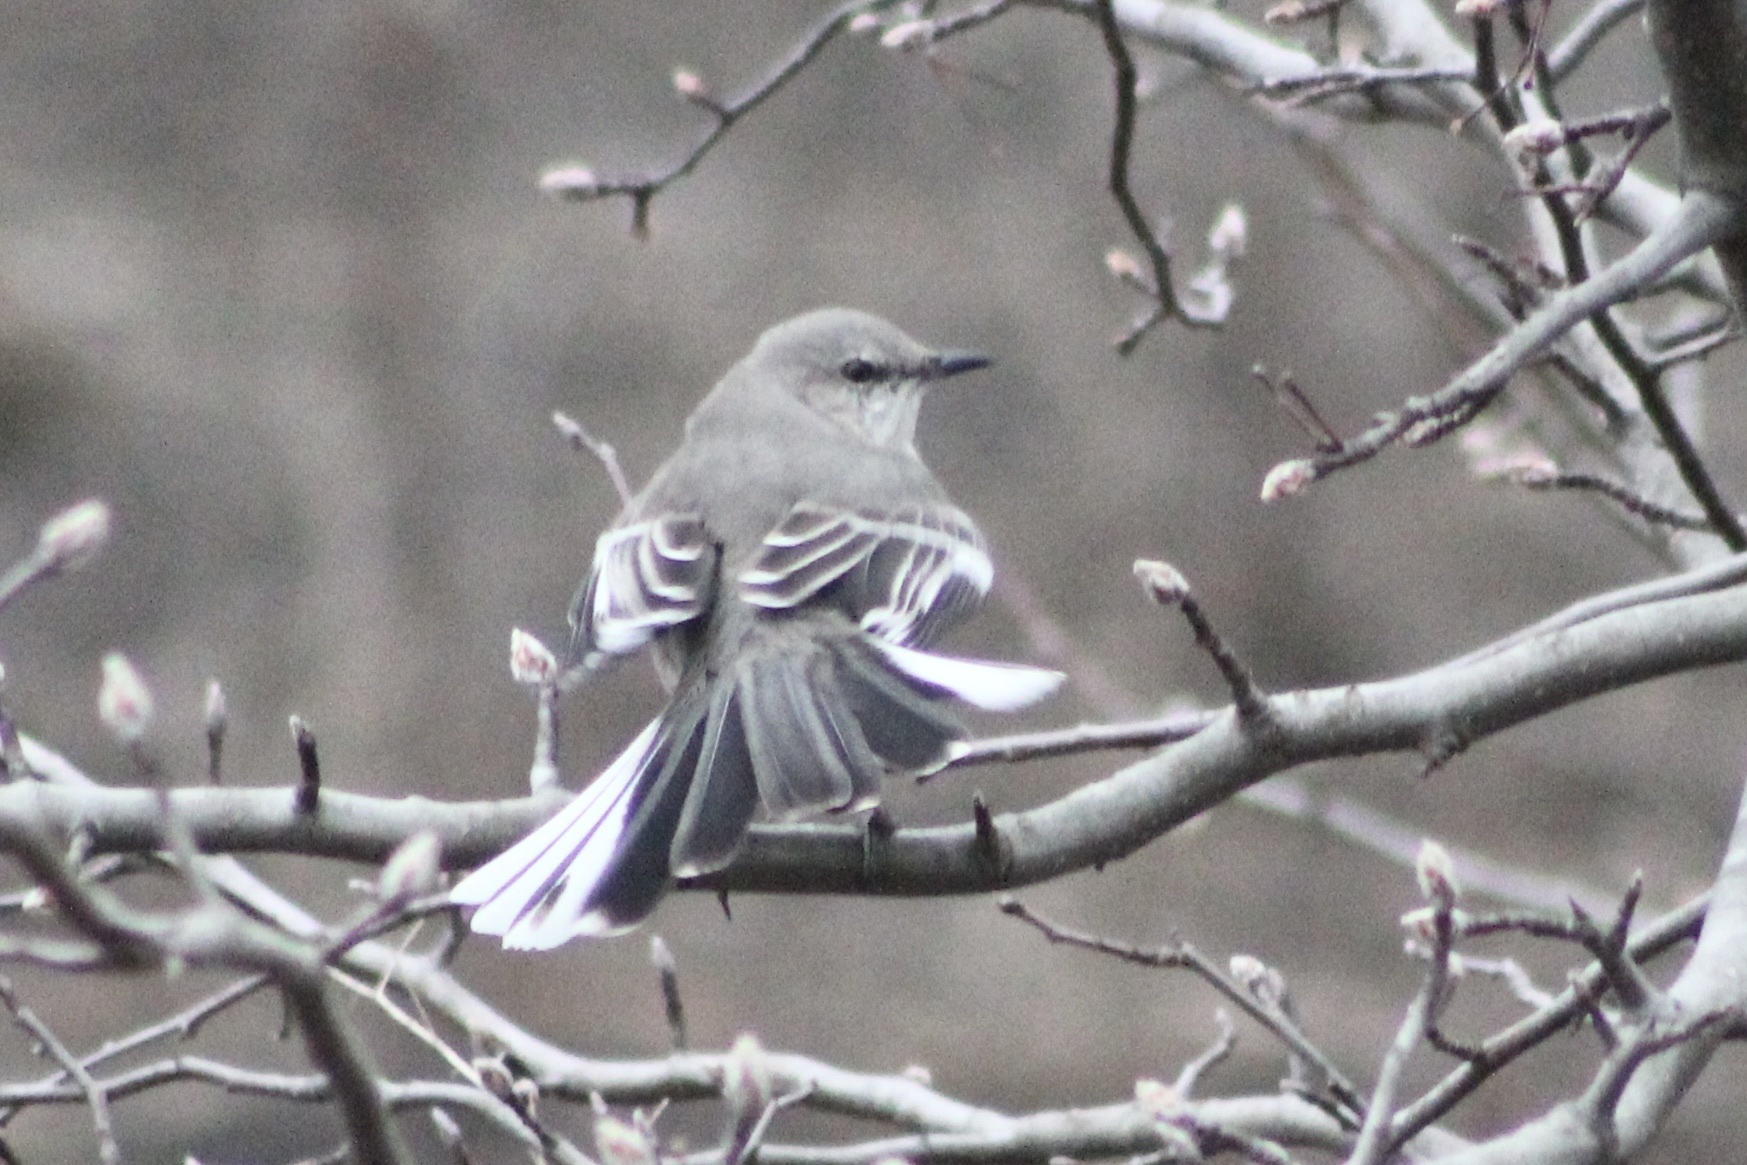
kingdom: Animalia
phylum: Chordata
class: Aves
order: Passeriformes
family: Mimidae
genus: Mimus
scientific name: Mimus polyglottos
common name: Northern mockingbird
